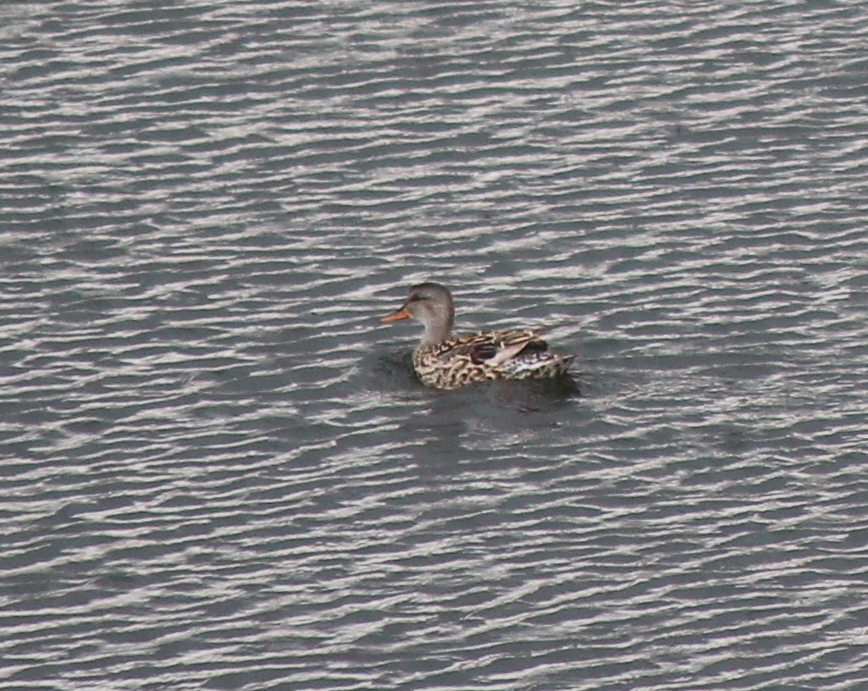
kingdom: Animalia
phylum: Chordata
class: Aves
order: Anseriformes
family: Anatidae
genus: Mareca
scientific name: Mareca strepera
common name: Gadwall
